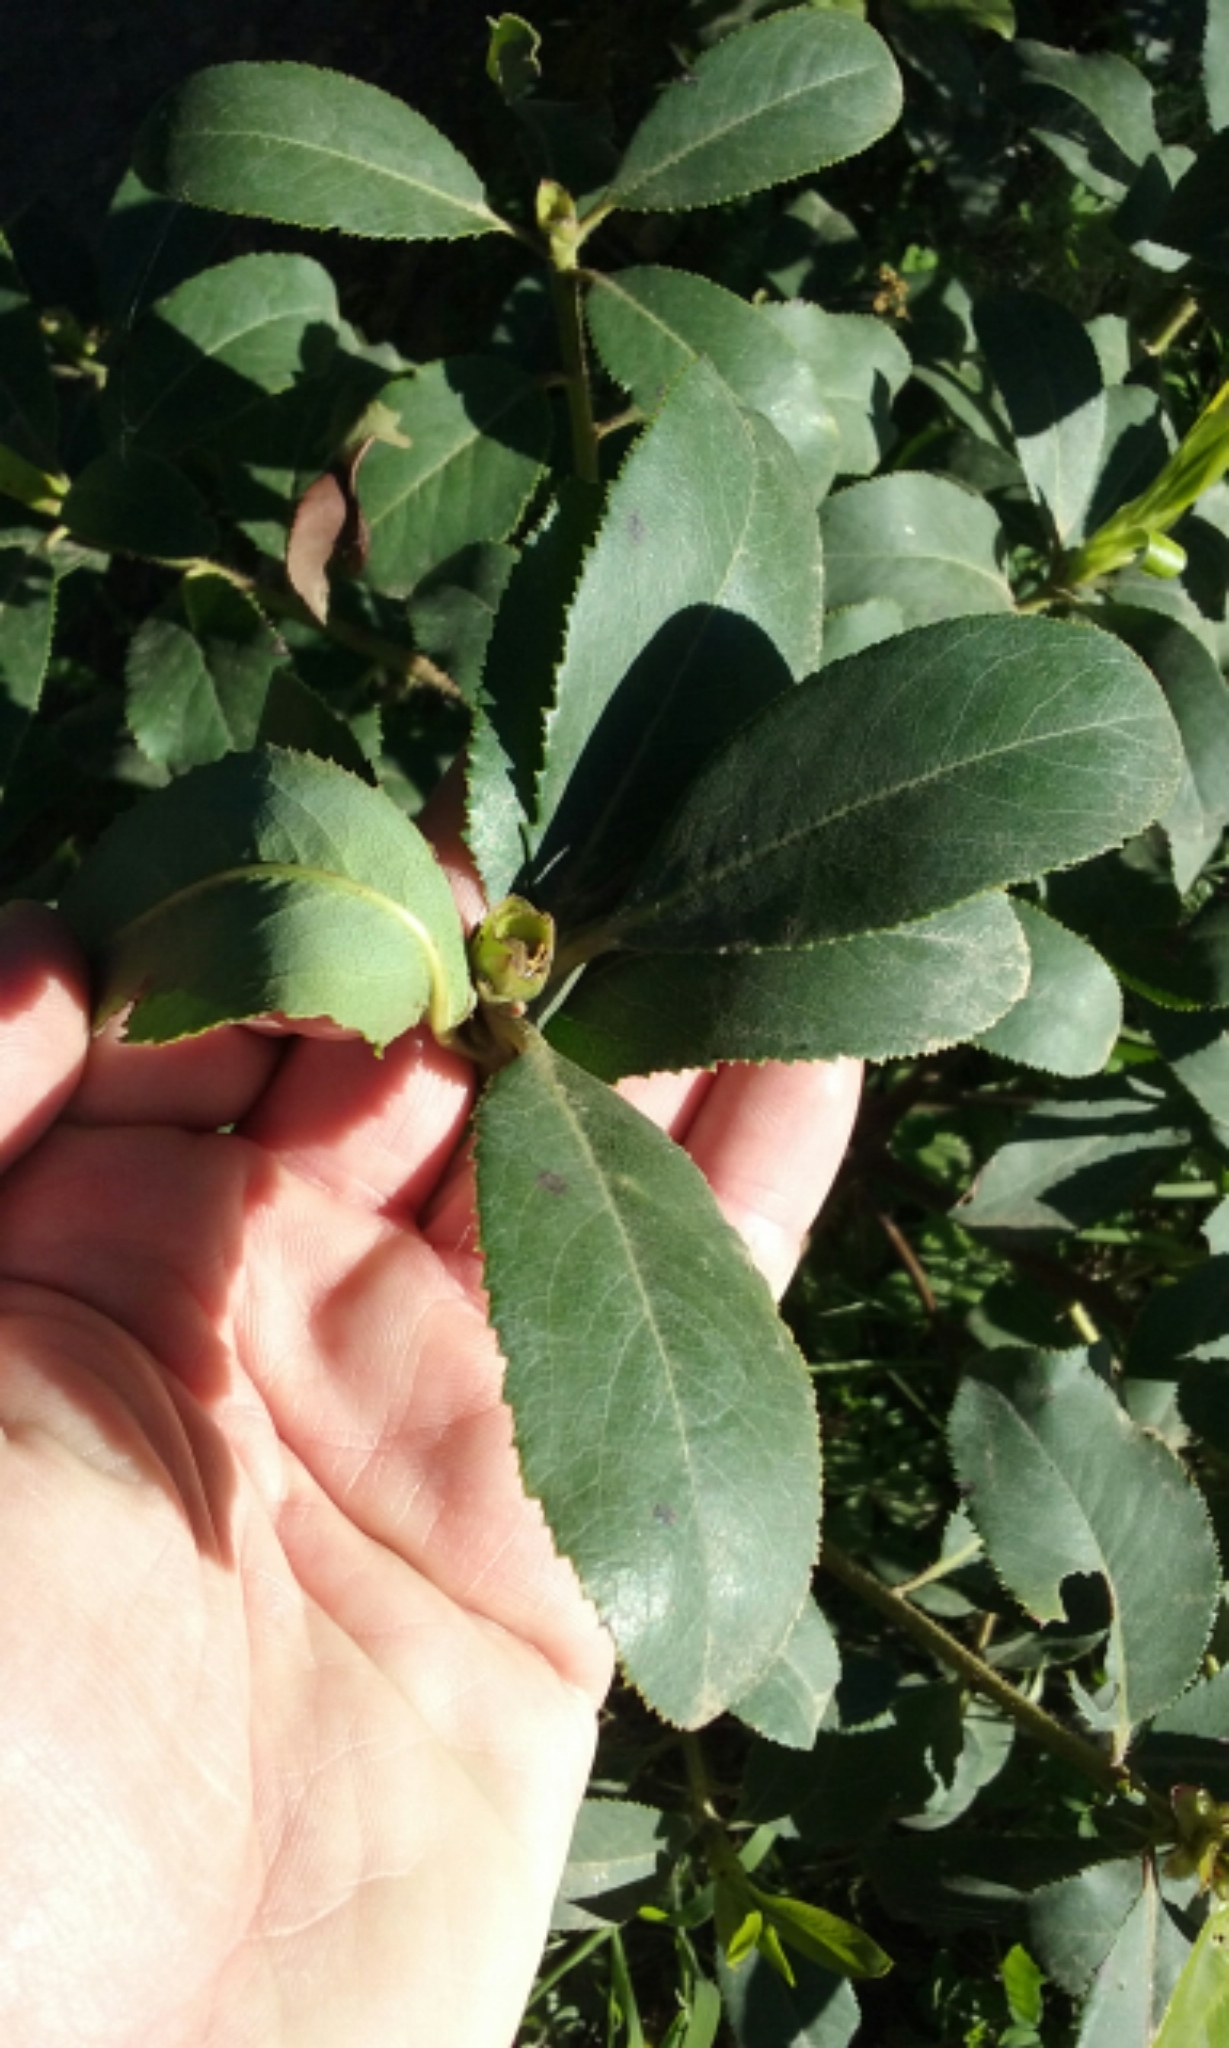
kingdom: Plantae
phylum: Tracheophyta
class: Magnoliopsida
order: Ericales
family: Ericaceae
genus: Arbutus
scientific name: Arbutus menziesii
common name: Pacific madrone
